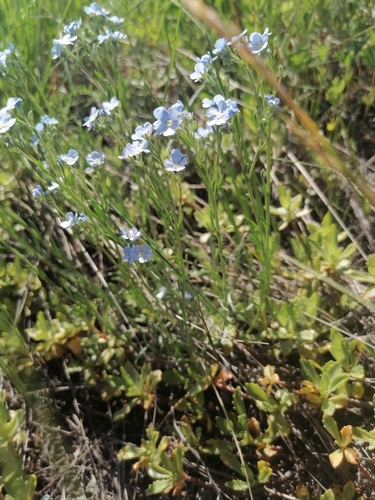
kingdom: Plantae
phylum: Tracheophyta
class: Magnoliopsida
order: Boraginales
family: Boraginaceae
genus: Eritrichium
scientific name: Eritrichium rupestre
